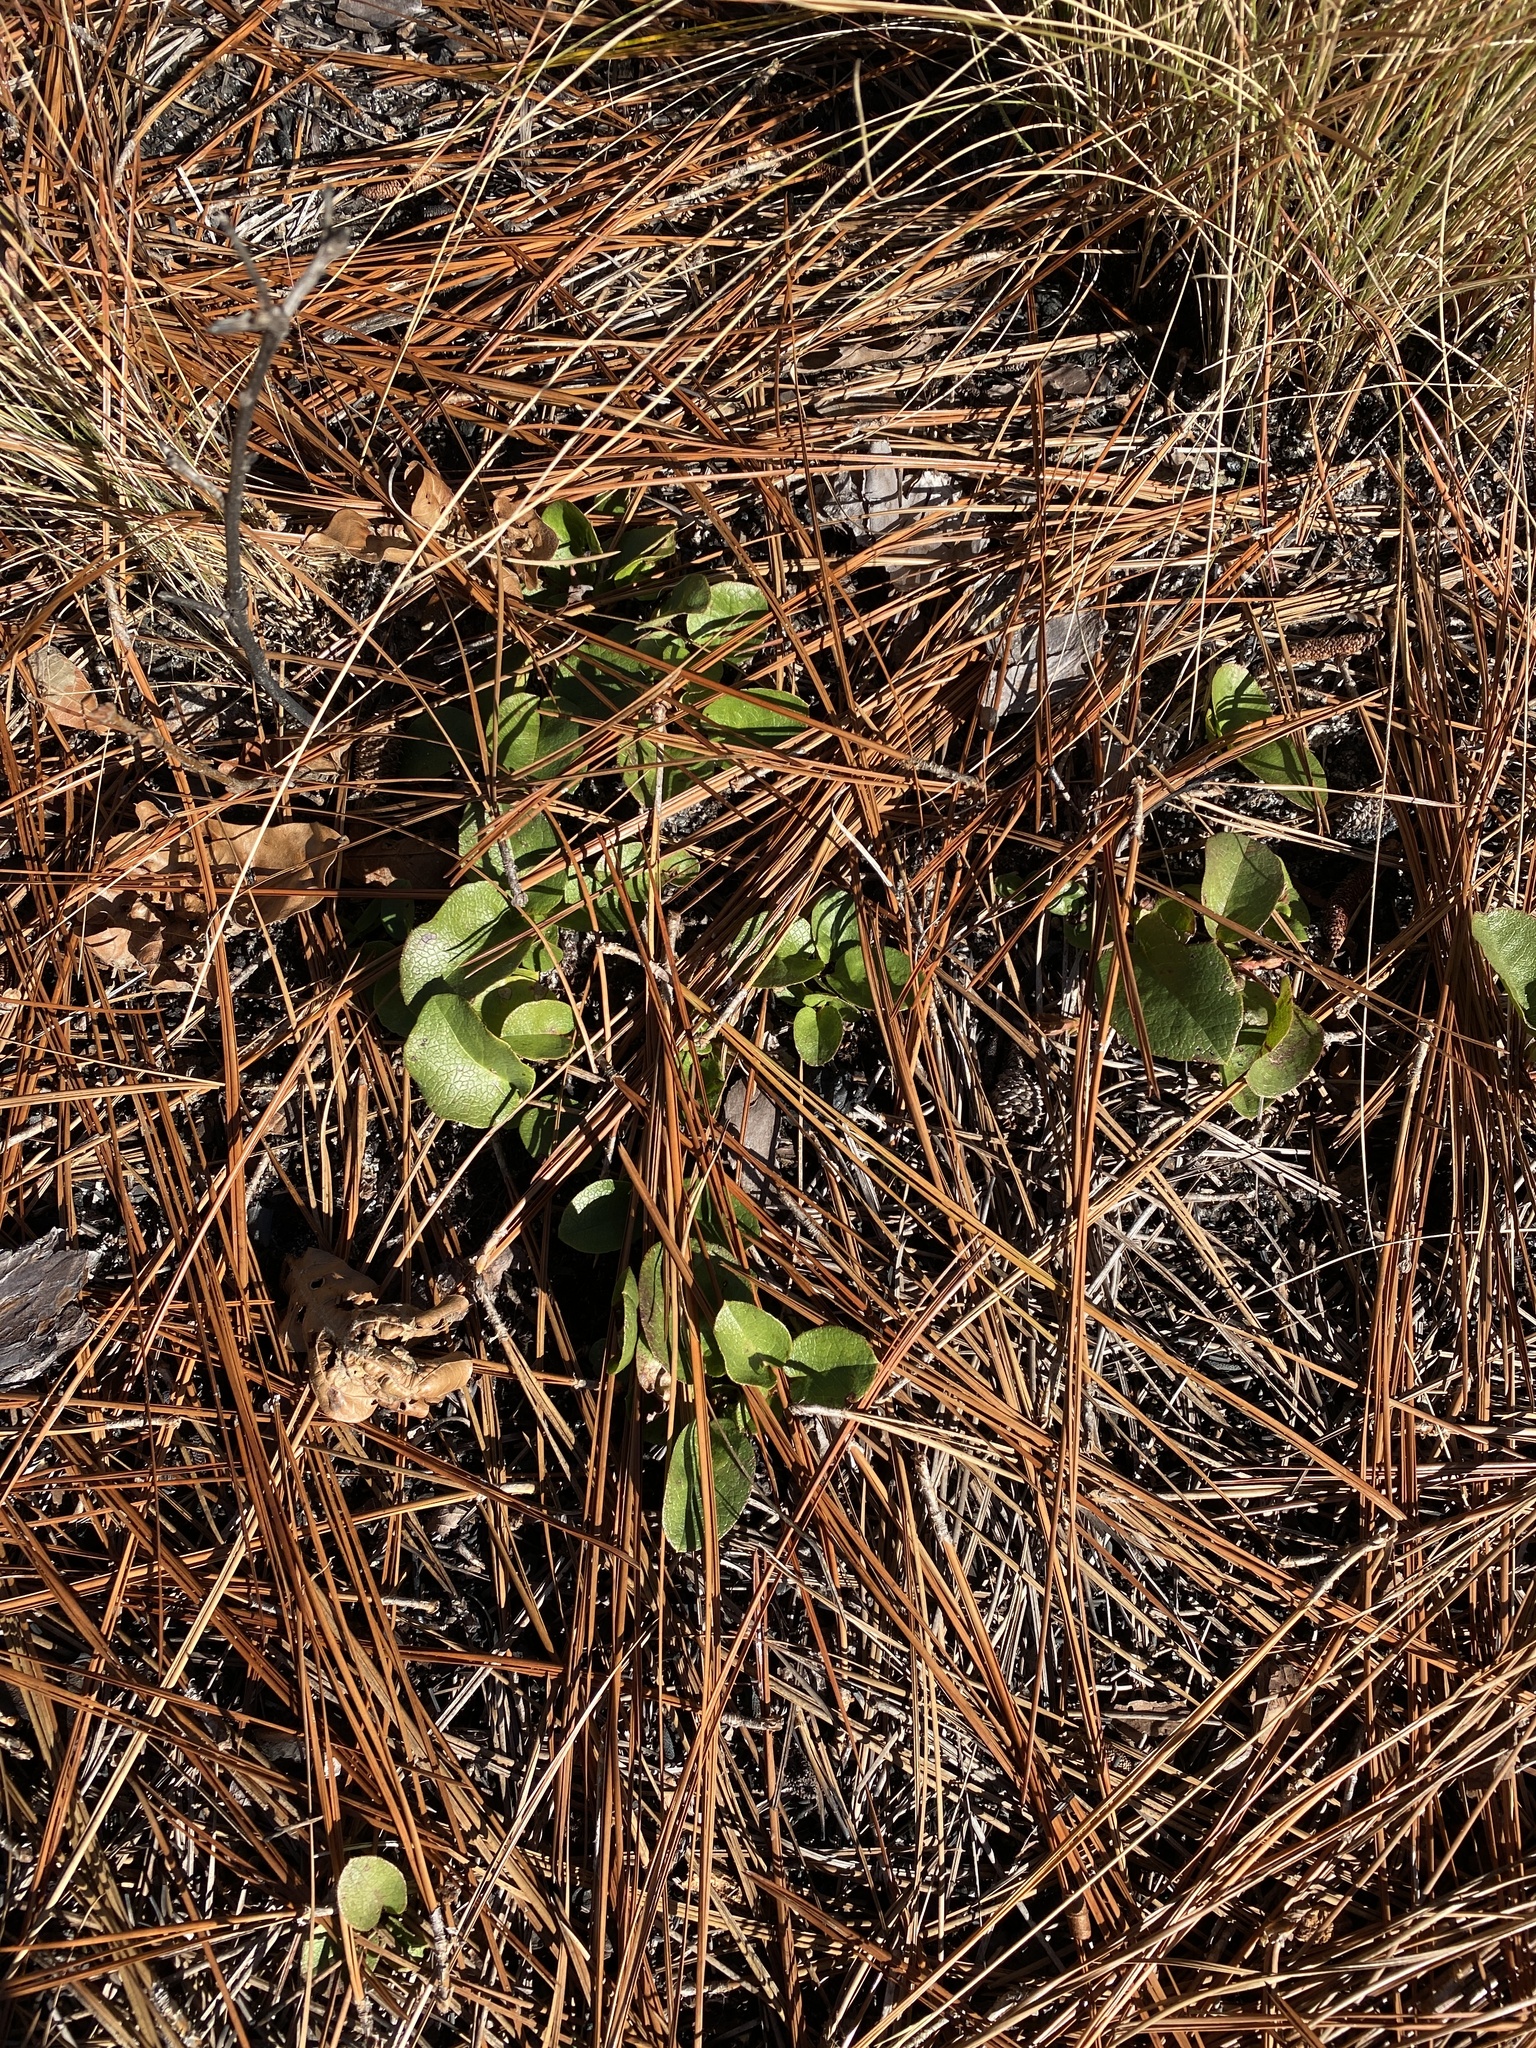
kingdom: Plantae
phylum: Tracheophyta
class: Magnoliopsida
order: Ericales
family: Ericaceae
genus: Epigaea
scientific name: Epigaea repens
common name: Gravelroot
